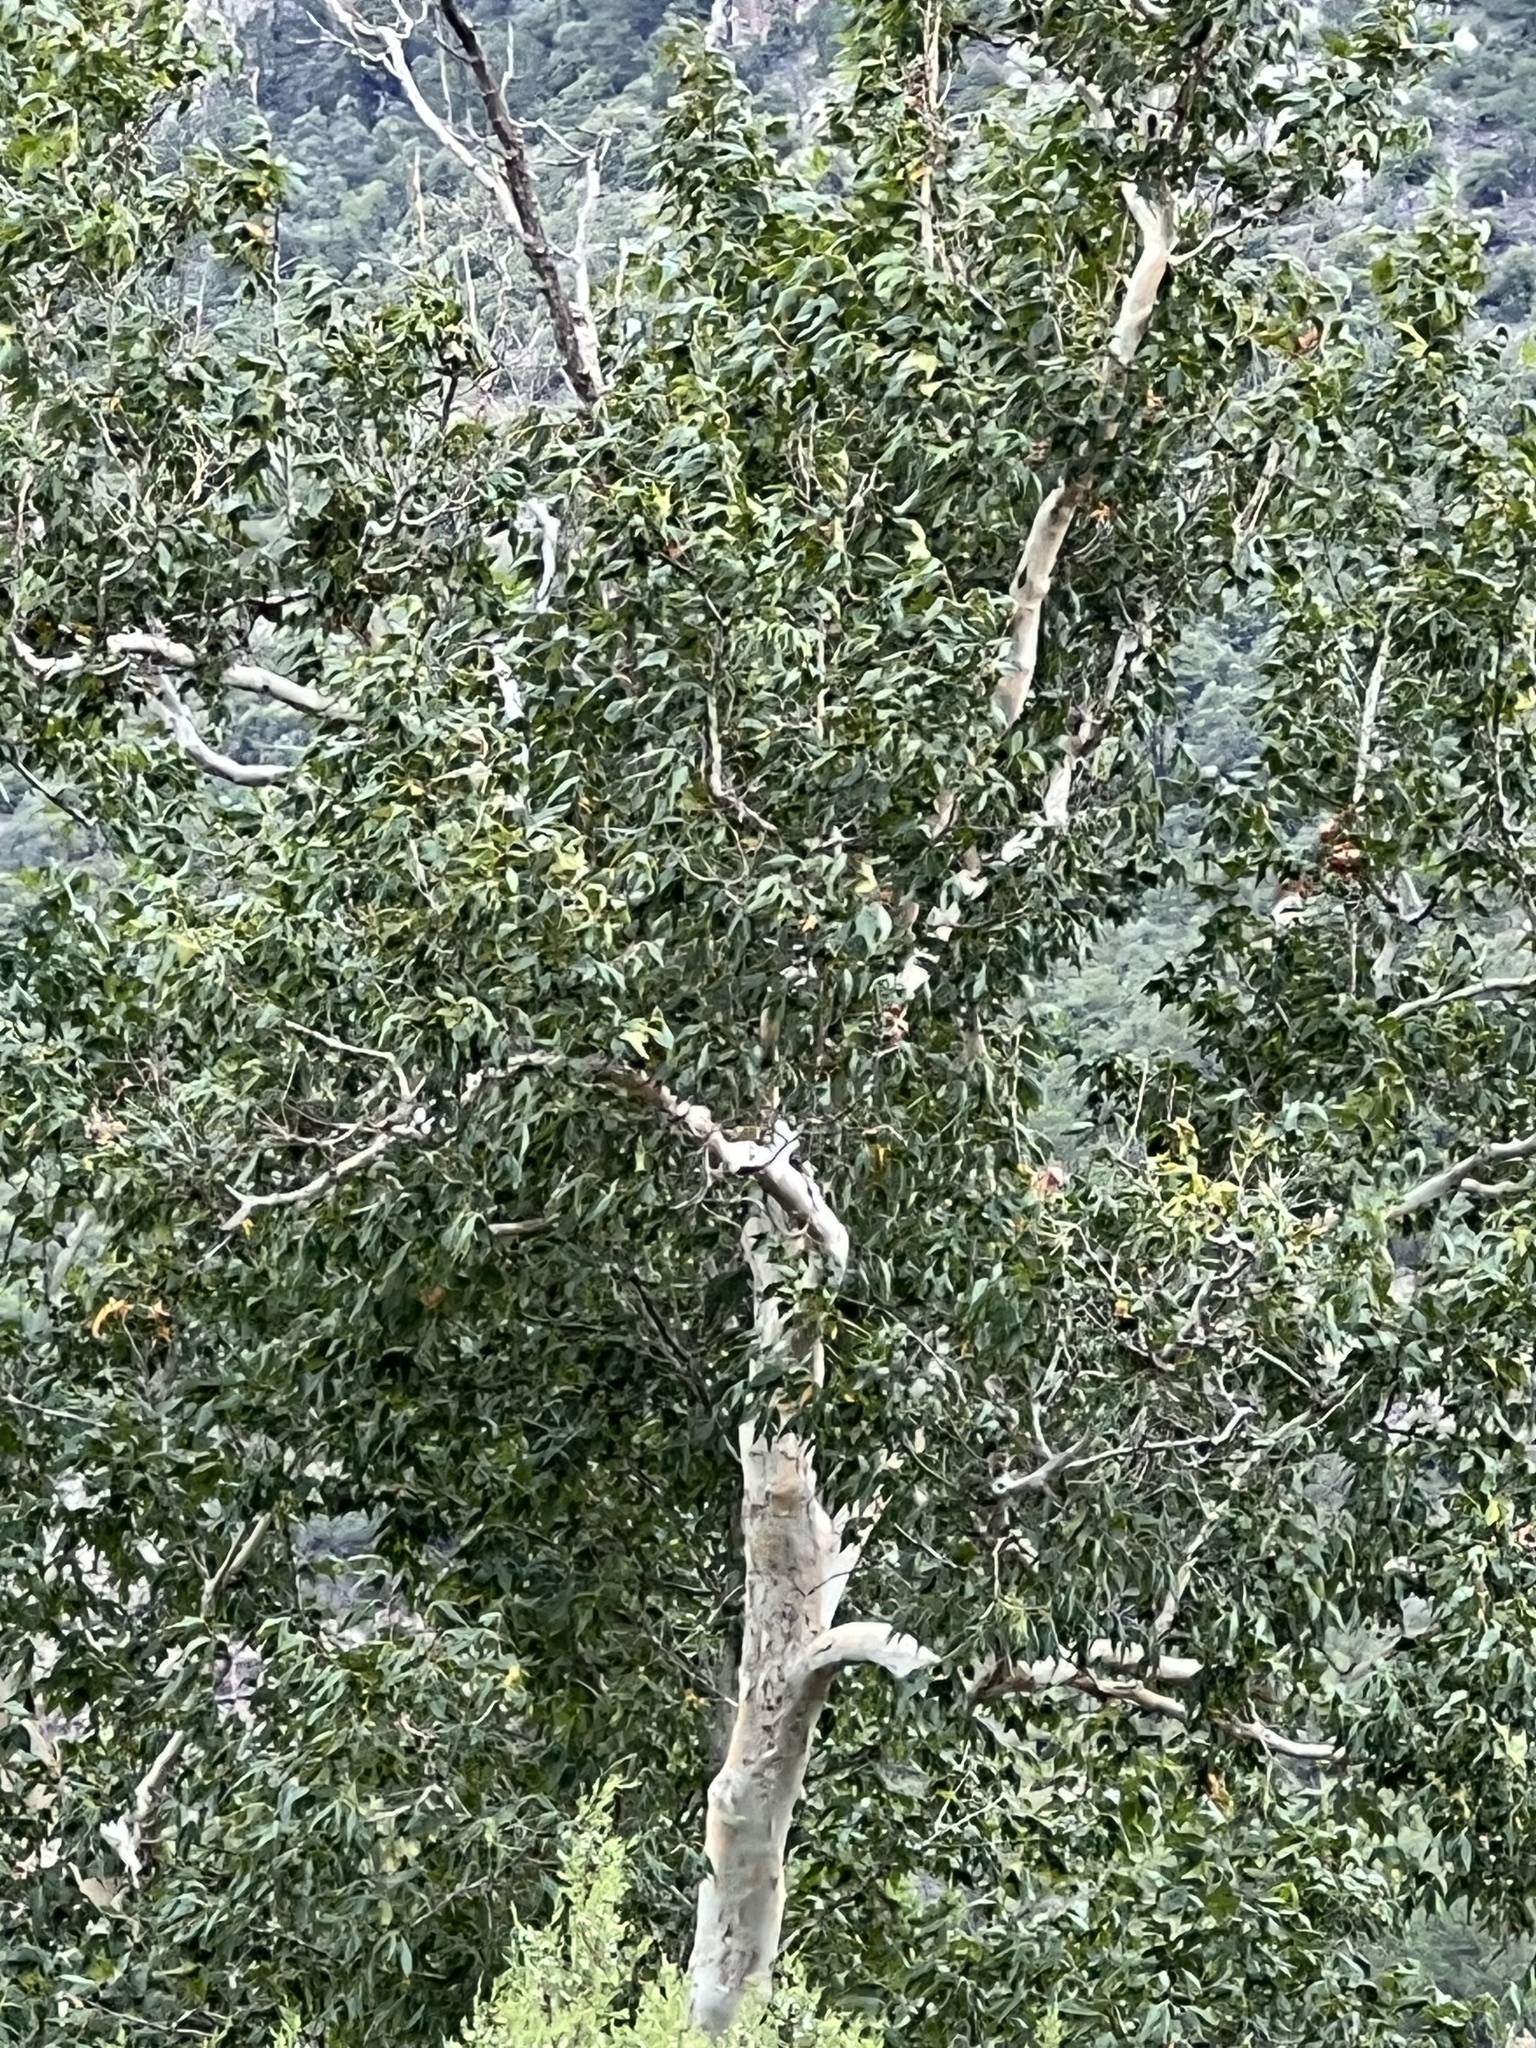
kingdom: Plantae
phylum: Tracheophyta
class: Magnoliopsida
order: Proteales
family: Platanaceae
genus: Platanus
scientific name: Platanus wrightii
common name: Arizona sycamore
